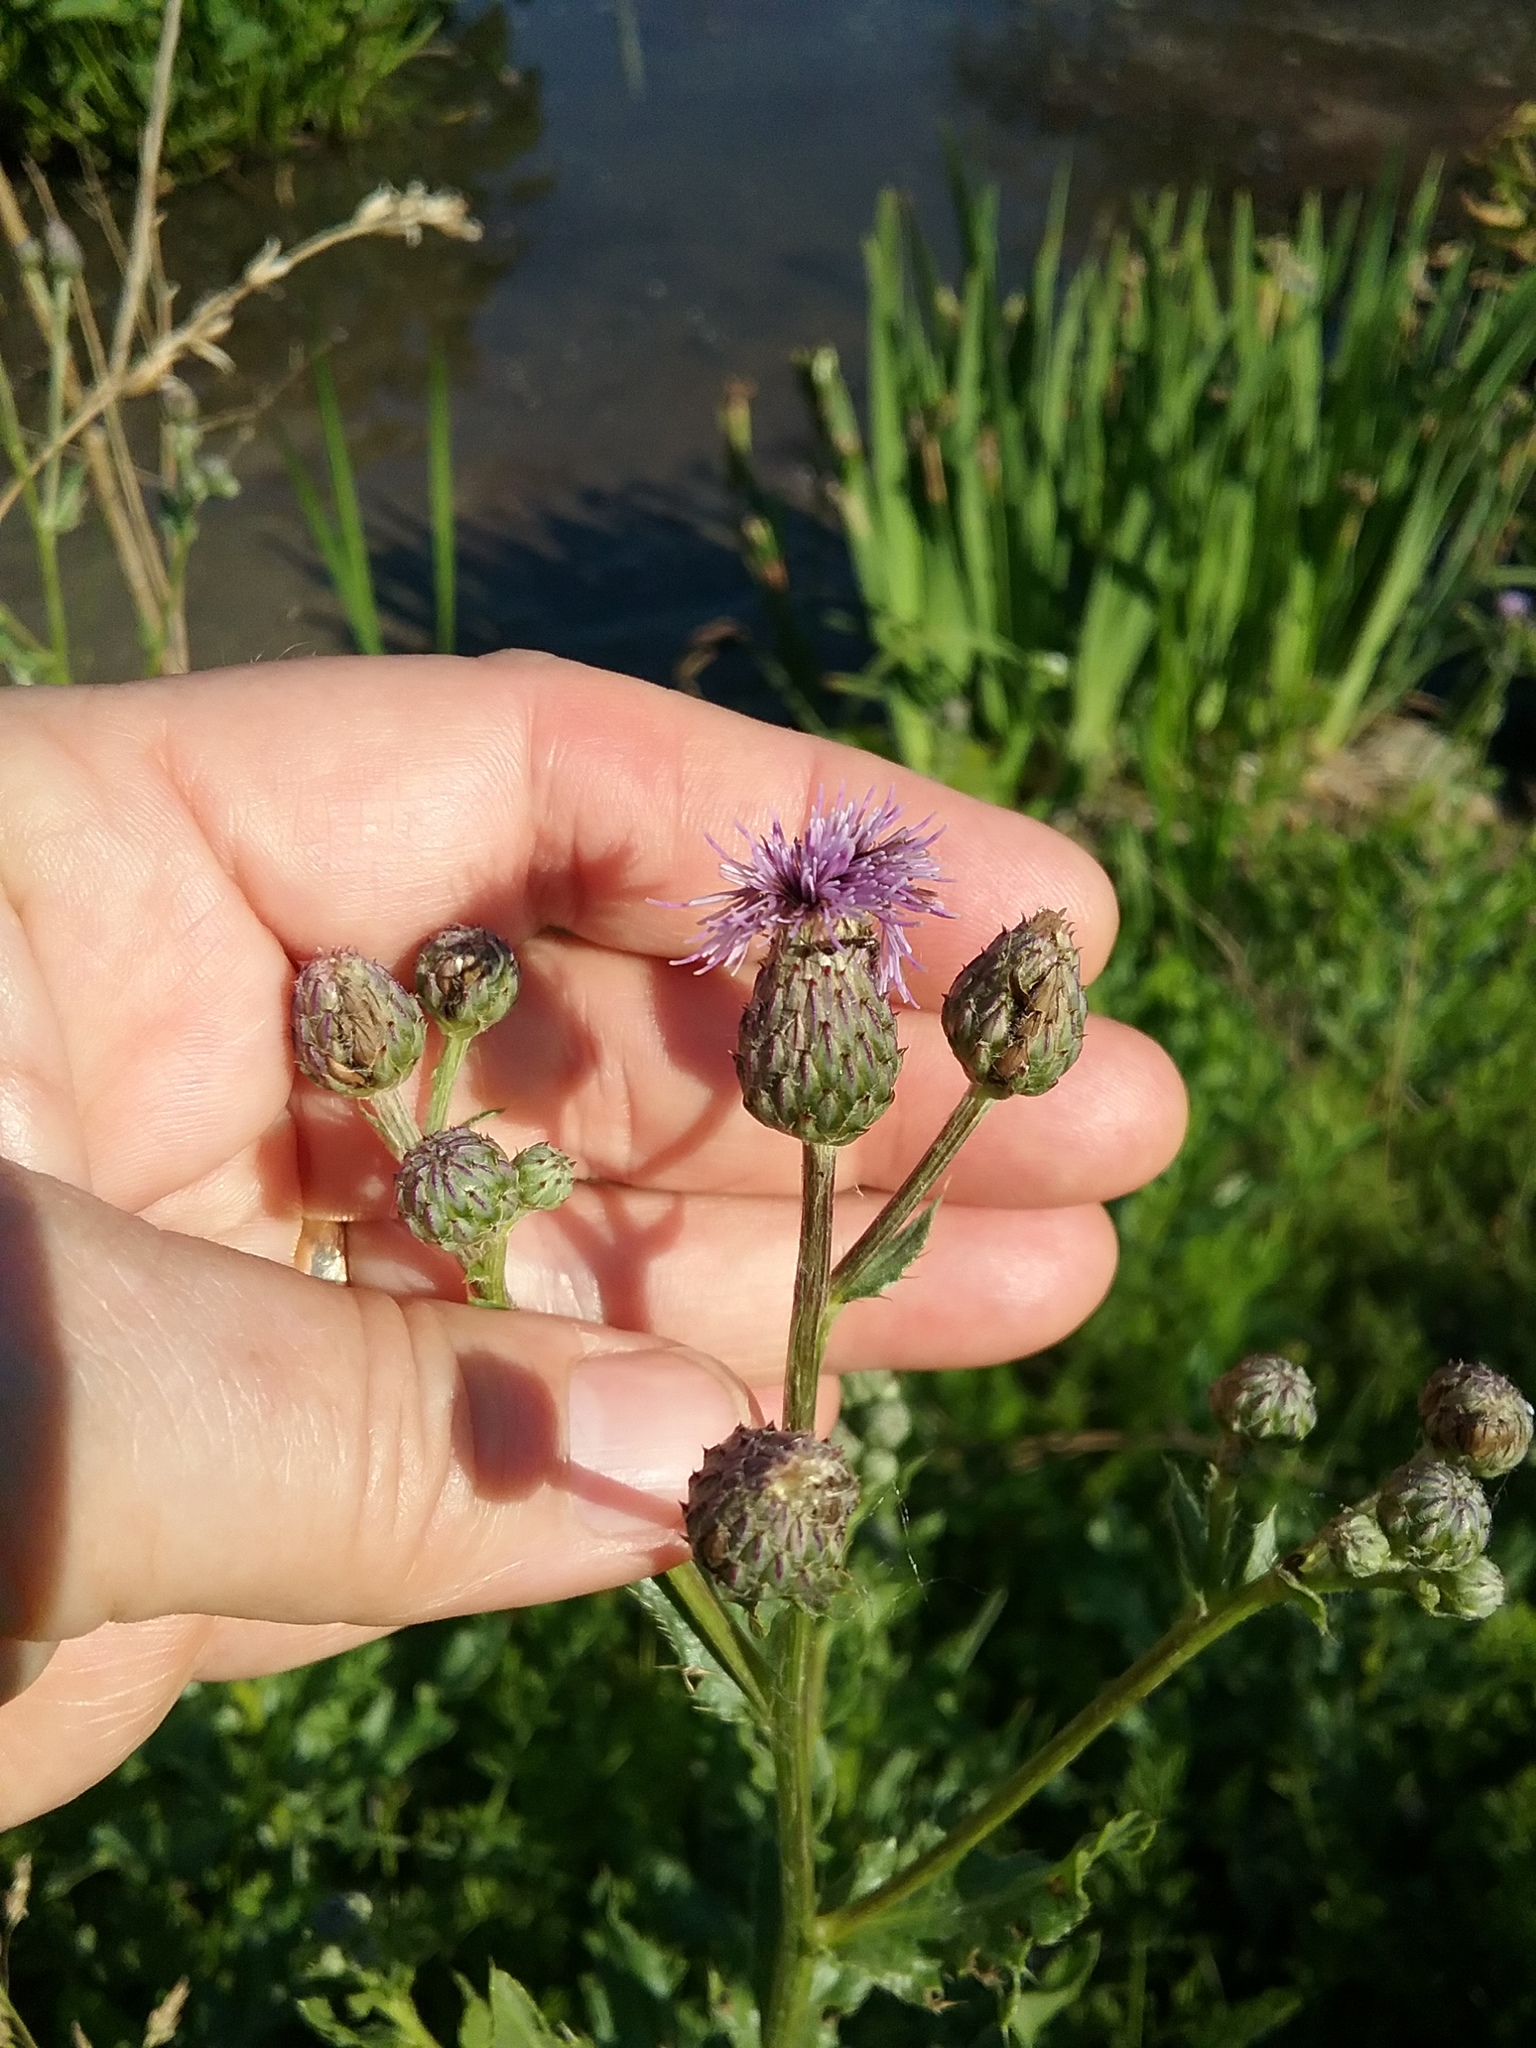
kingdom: Plantae
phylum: Tracheophyta
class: Magnoliopsida
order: Asterales
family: Asteraceae
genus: Cirsium
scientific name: Cirsium arvense
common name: Creeping thistle
